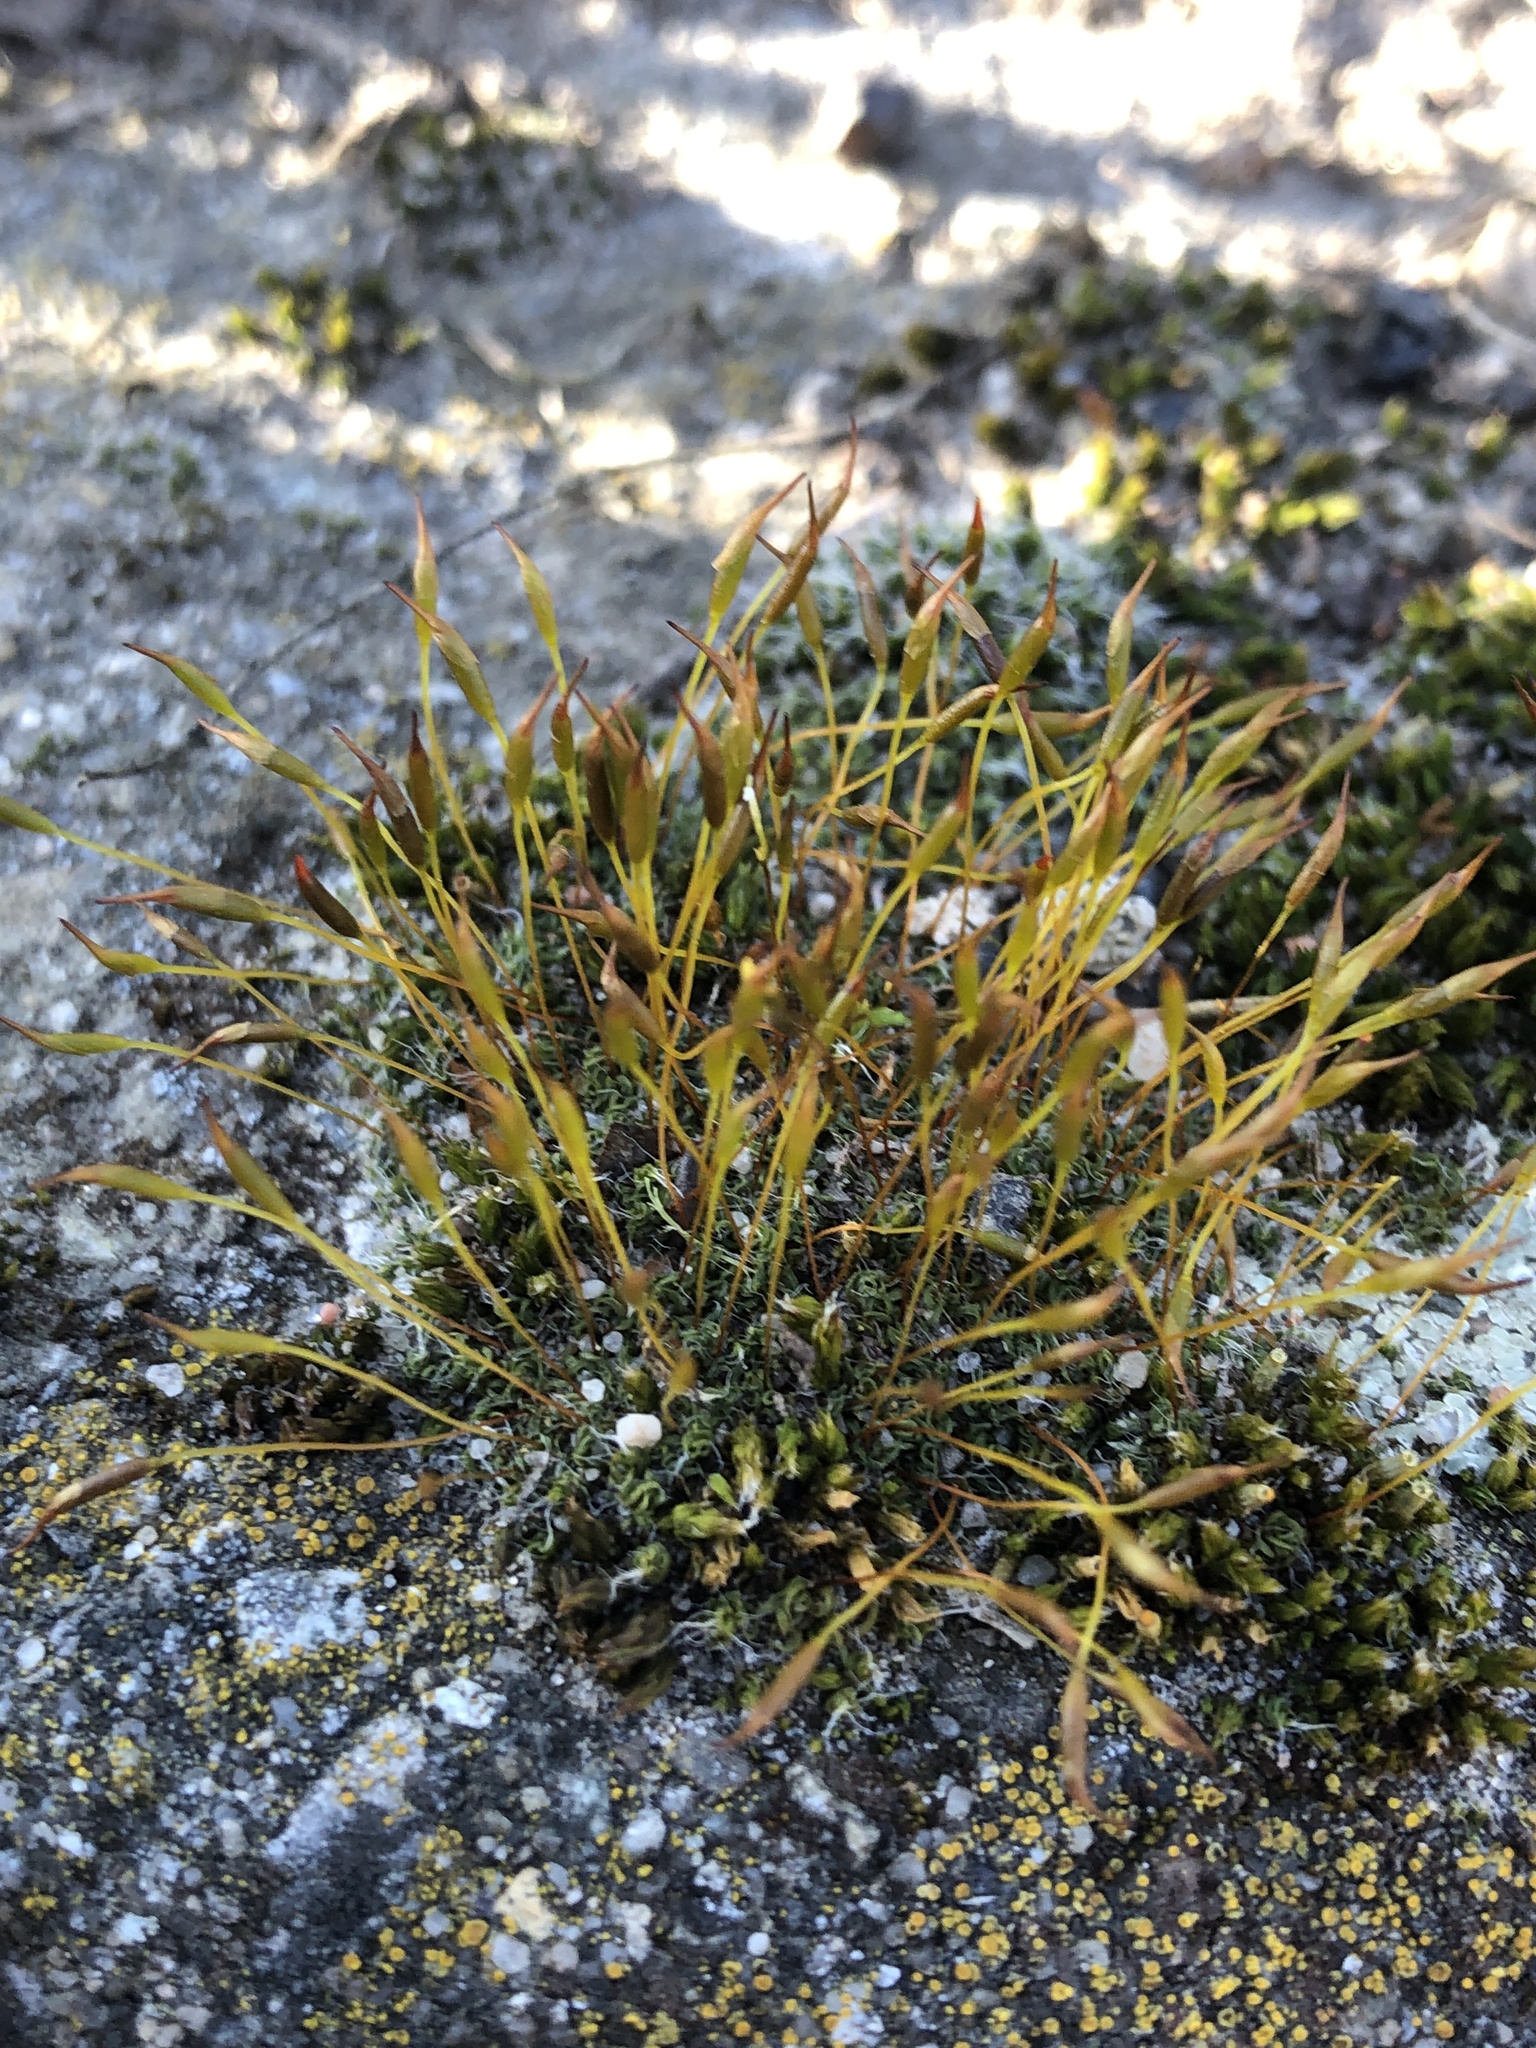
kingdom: Plantae
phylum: Bryophyta
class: Bryopsida
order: Pottiales
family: Pottiaceae
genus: Tortula
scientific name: Tortula muralis
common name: Wall screw-moss
